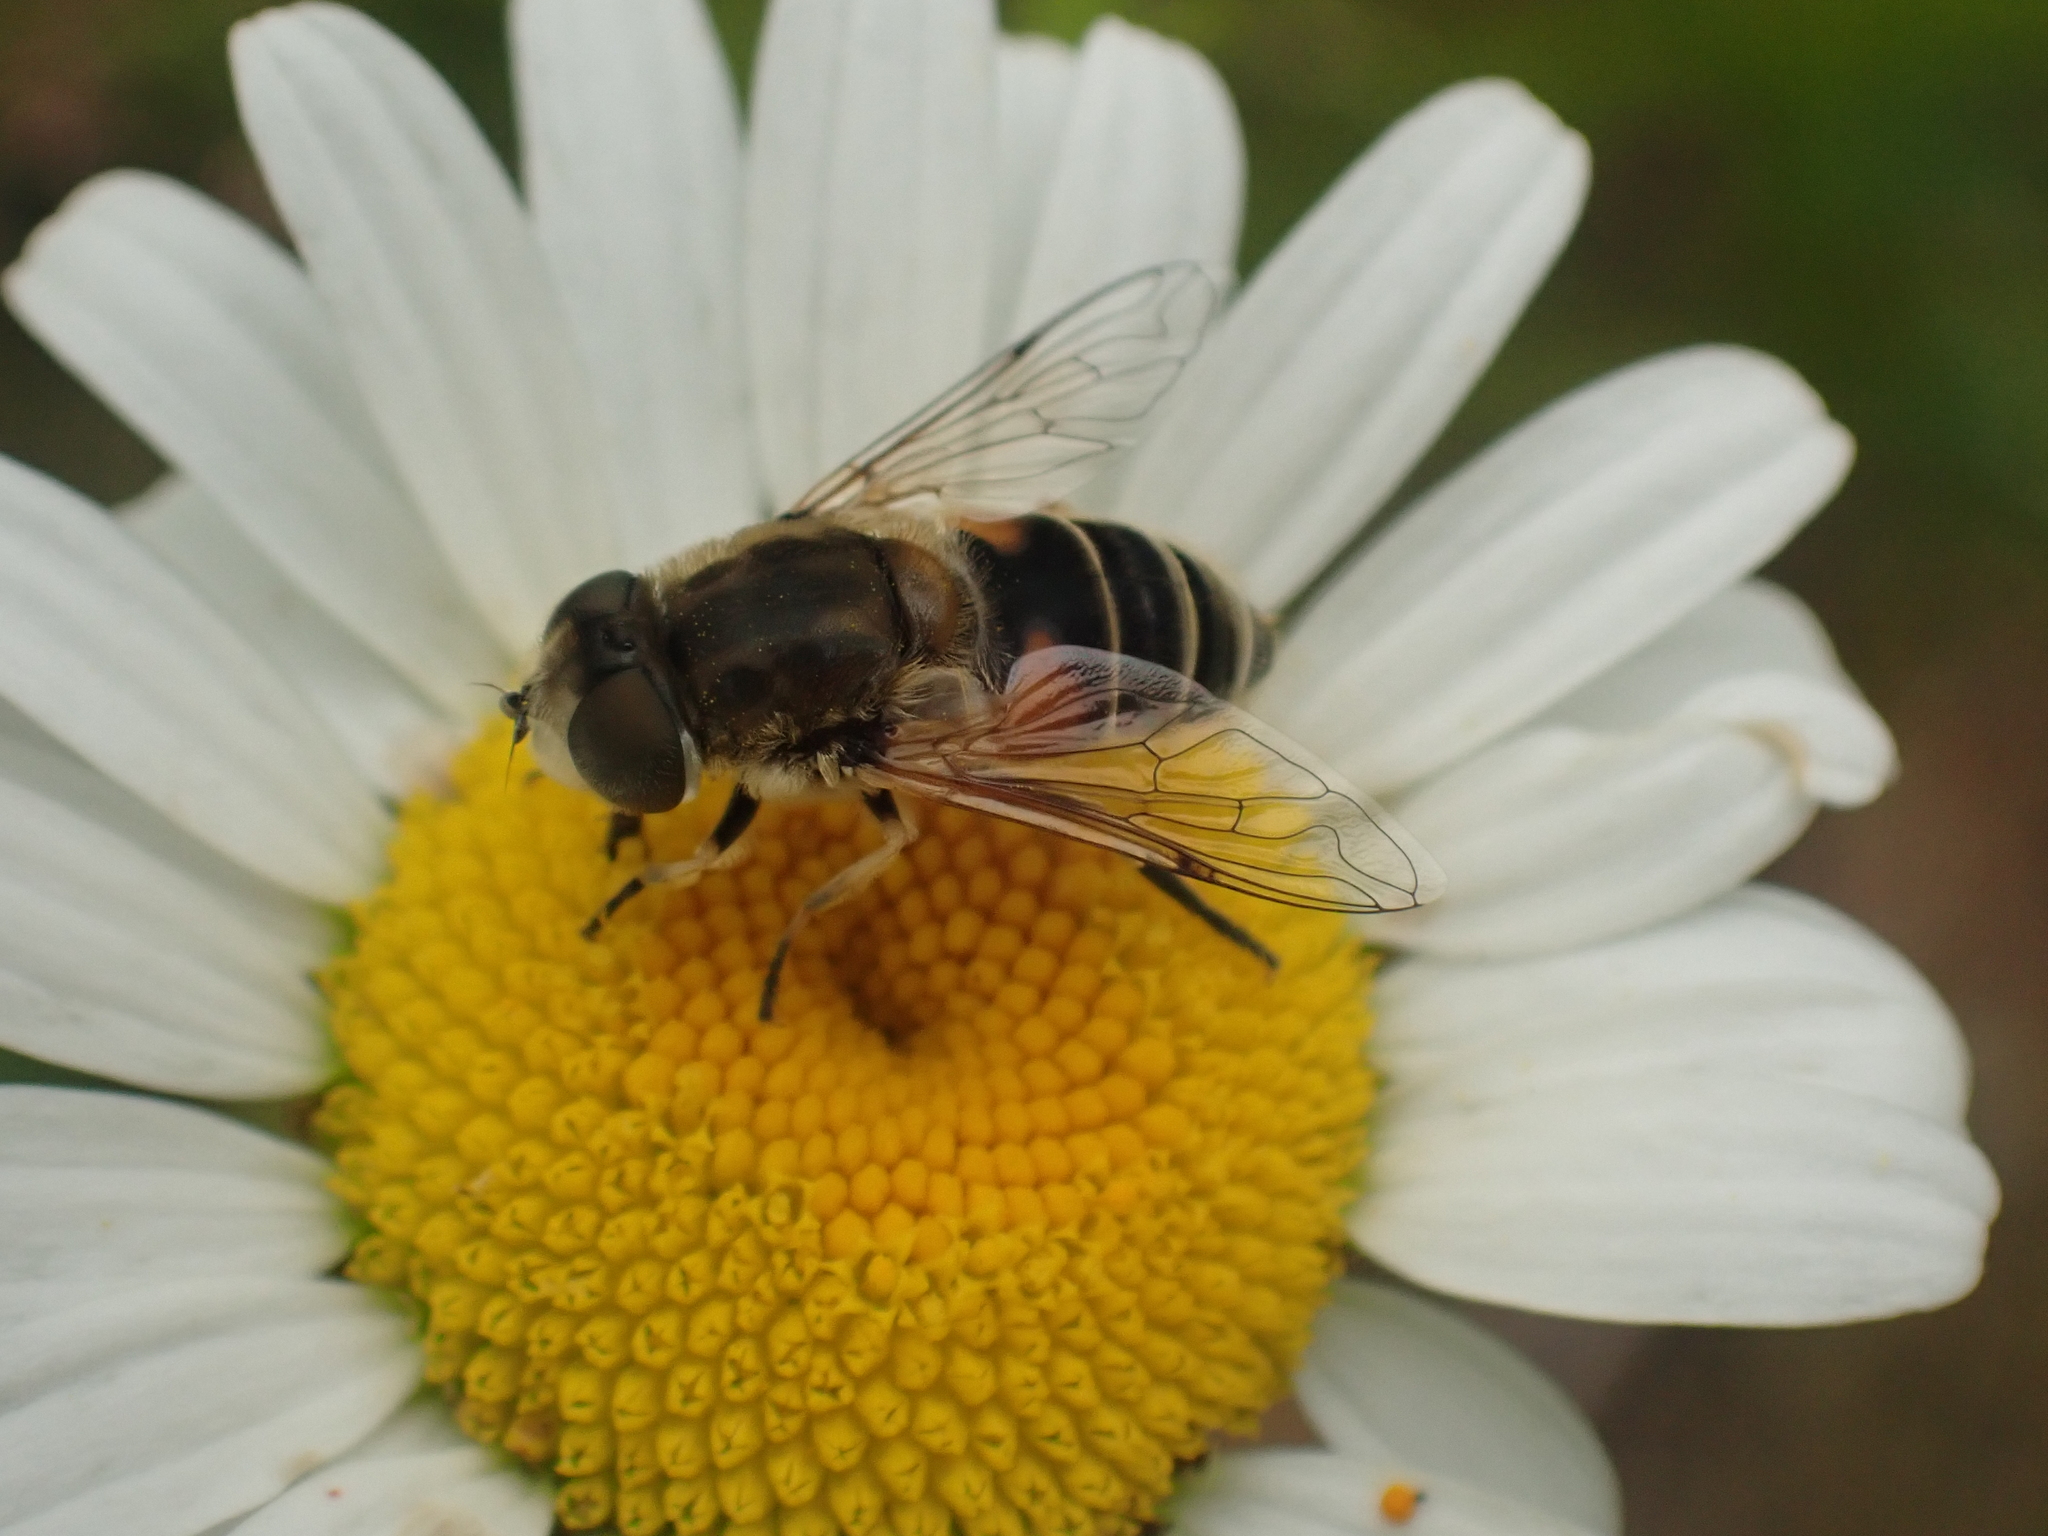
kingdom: Animalia
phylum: Arthropoda
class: Insecta
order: Diptera
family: Syrphidae
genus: Eristalis
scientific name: Eristalis arbustorum
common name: Hover fly
